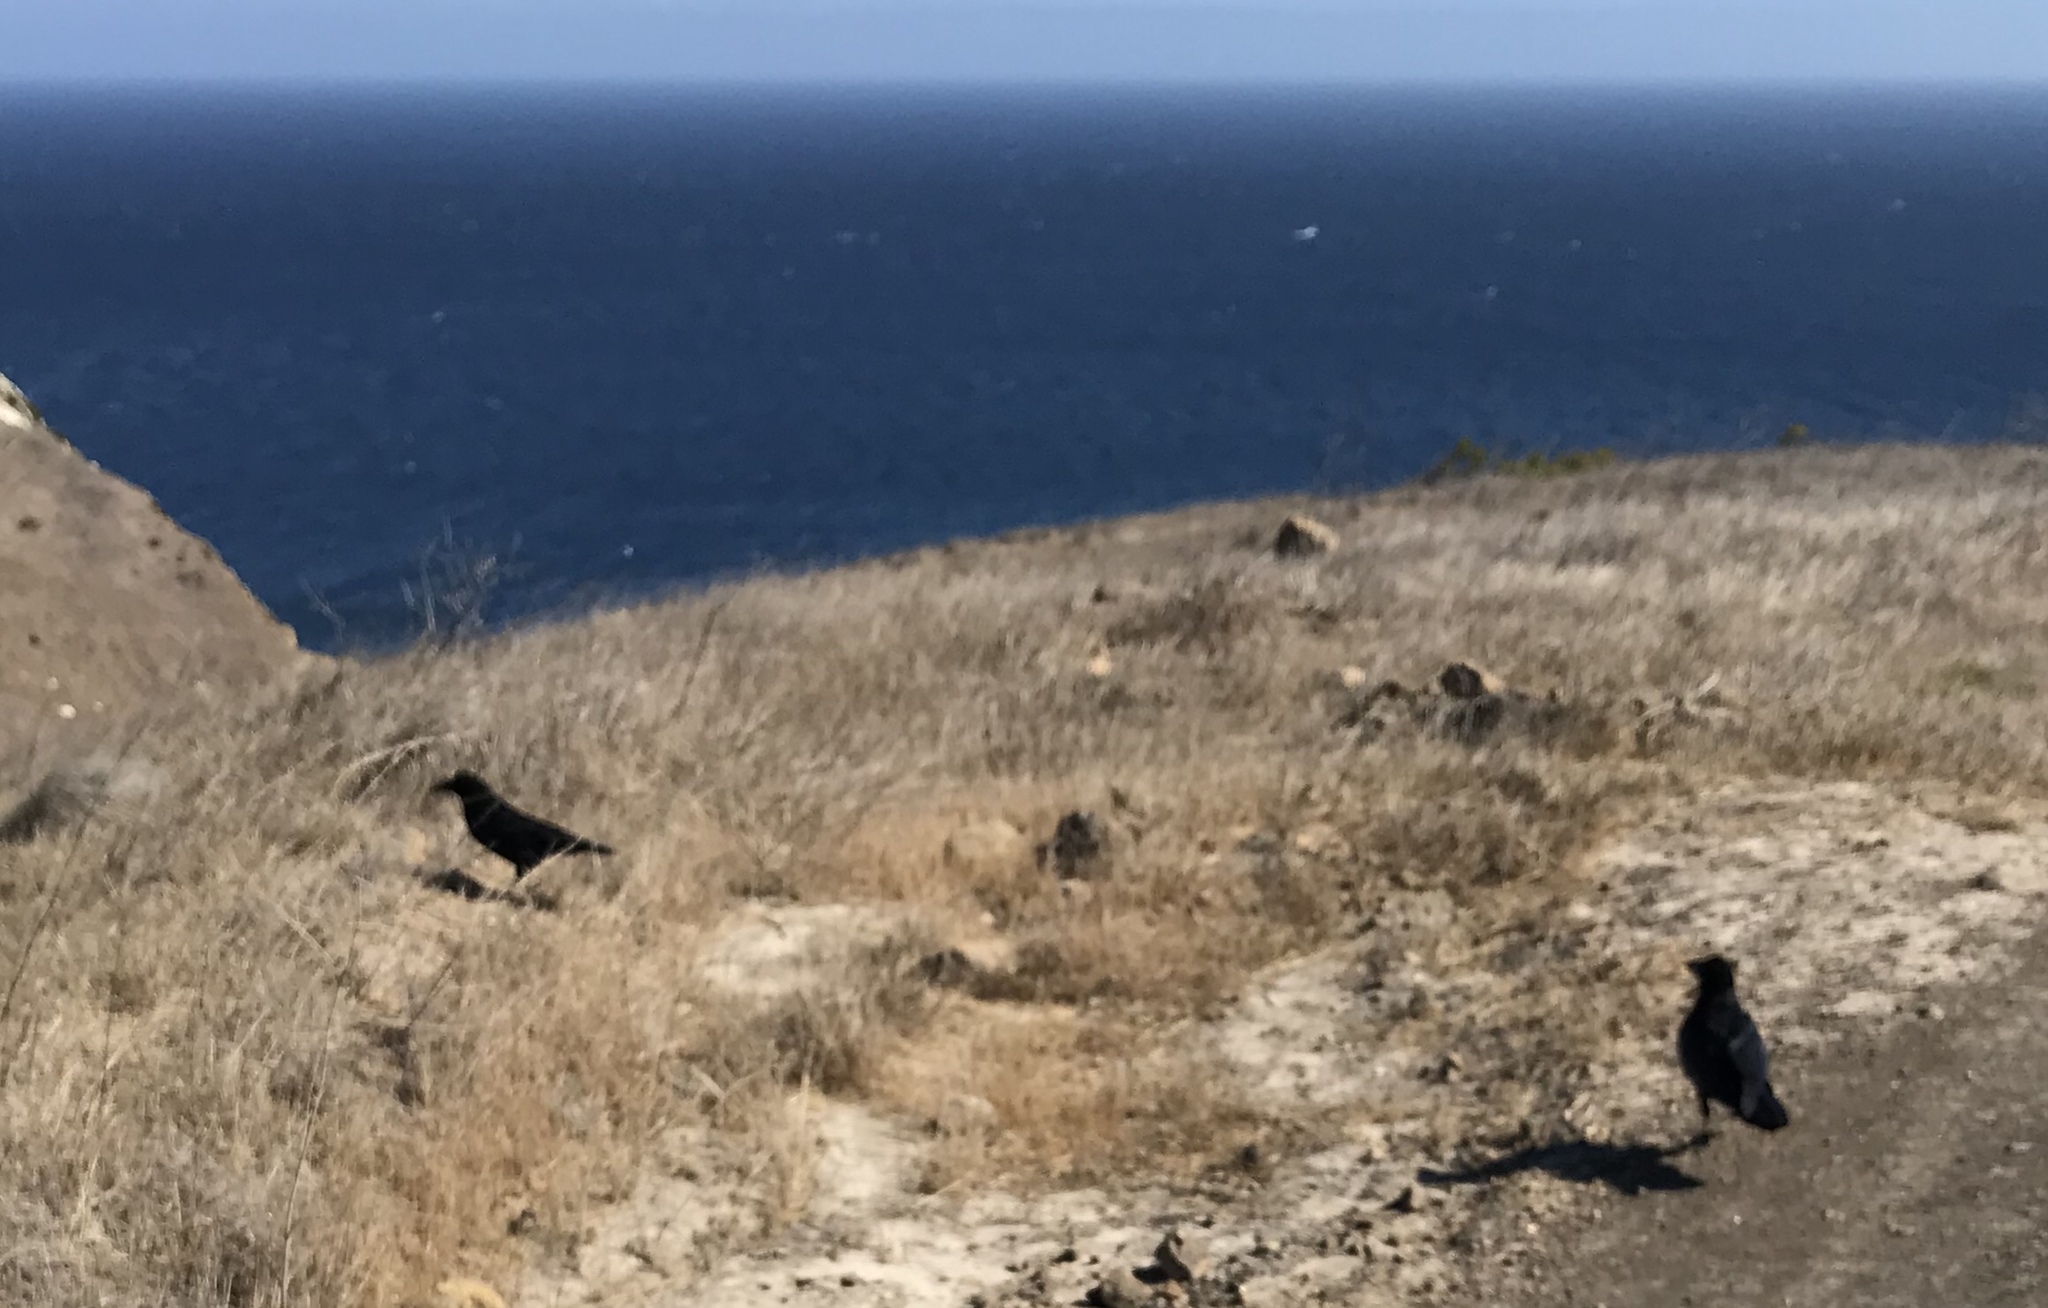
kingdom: Animalia
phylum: Chordata
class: Aves
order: Passeriformes
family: Corvidae
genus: Corvus
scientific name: Corvus corax
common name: Common raven
